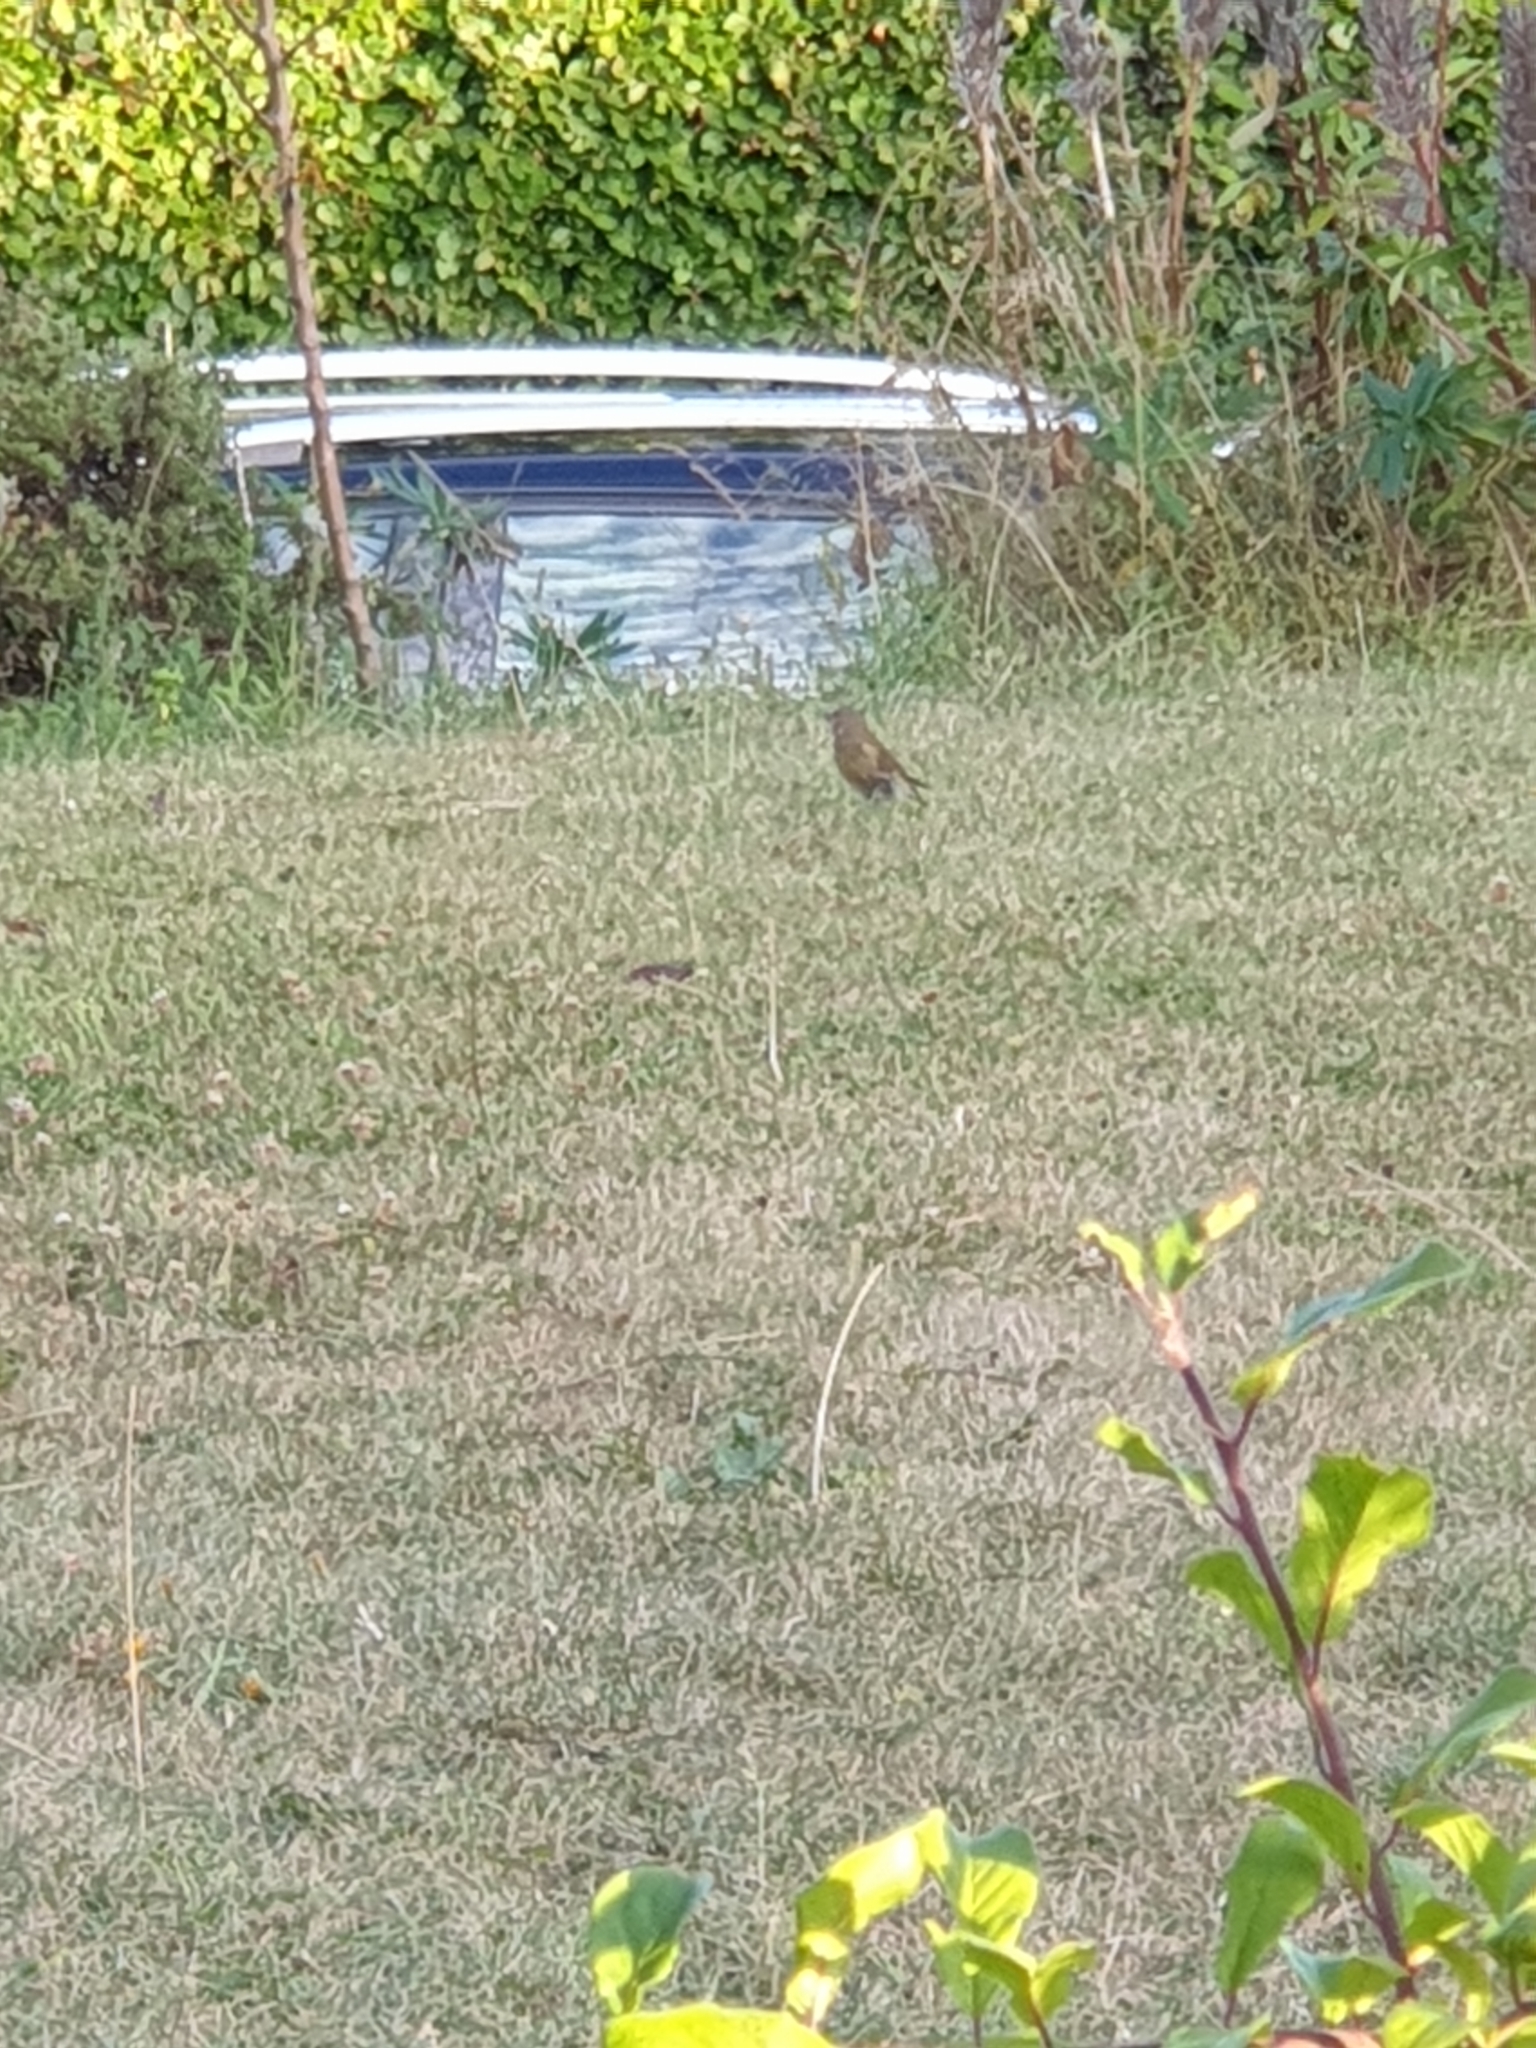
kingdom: Plantae
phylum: Tracheophyta
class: Liliopsida
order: Poales
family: Poaceae
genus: Chloris
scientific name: Chloris chloris
